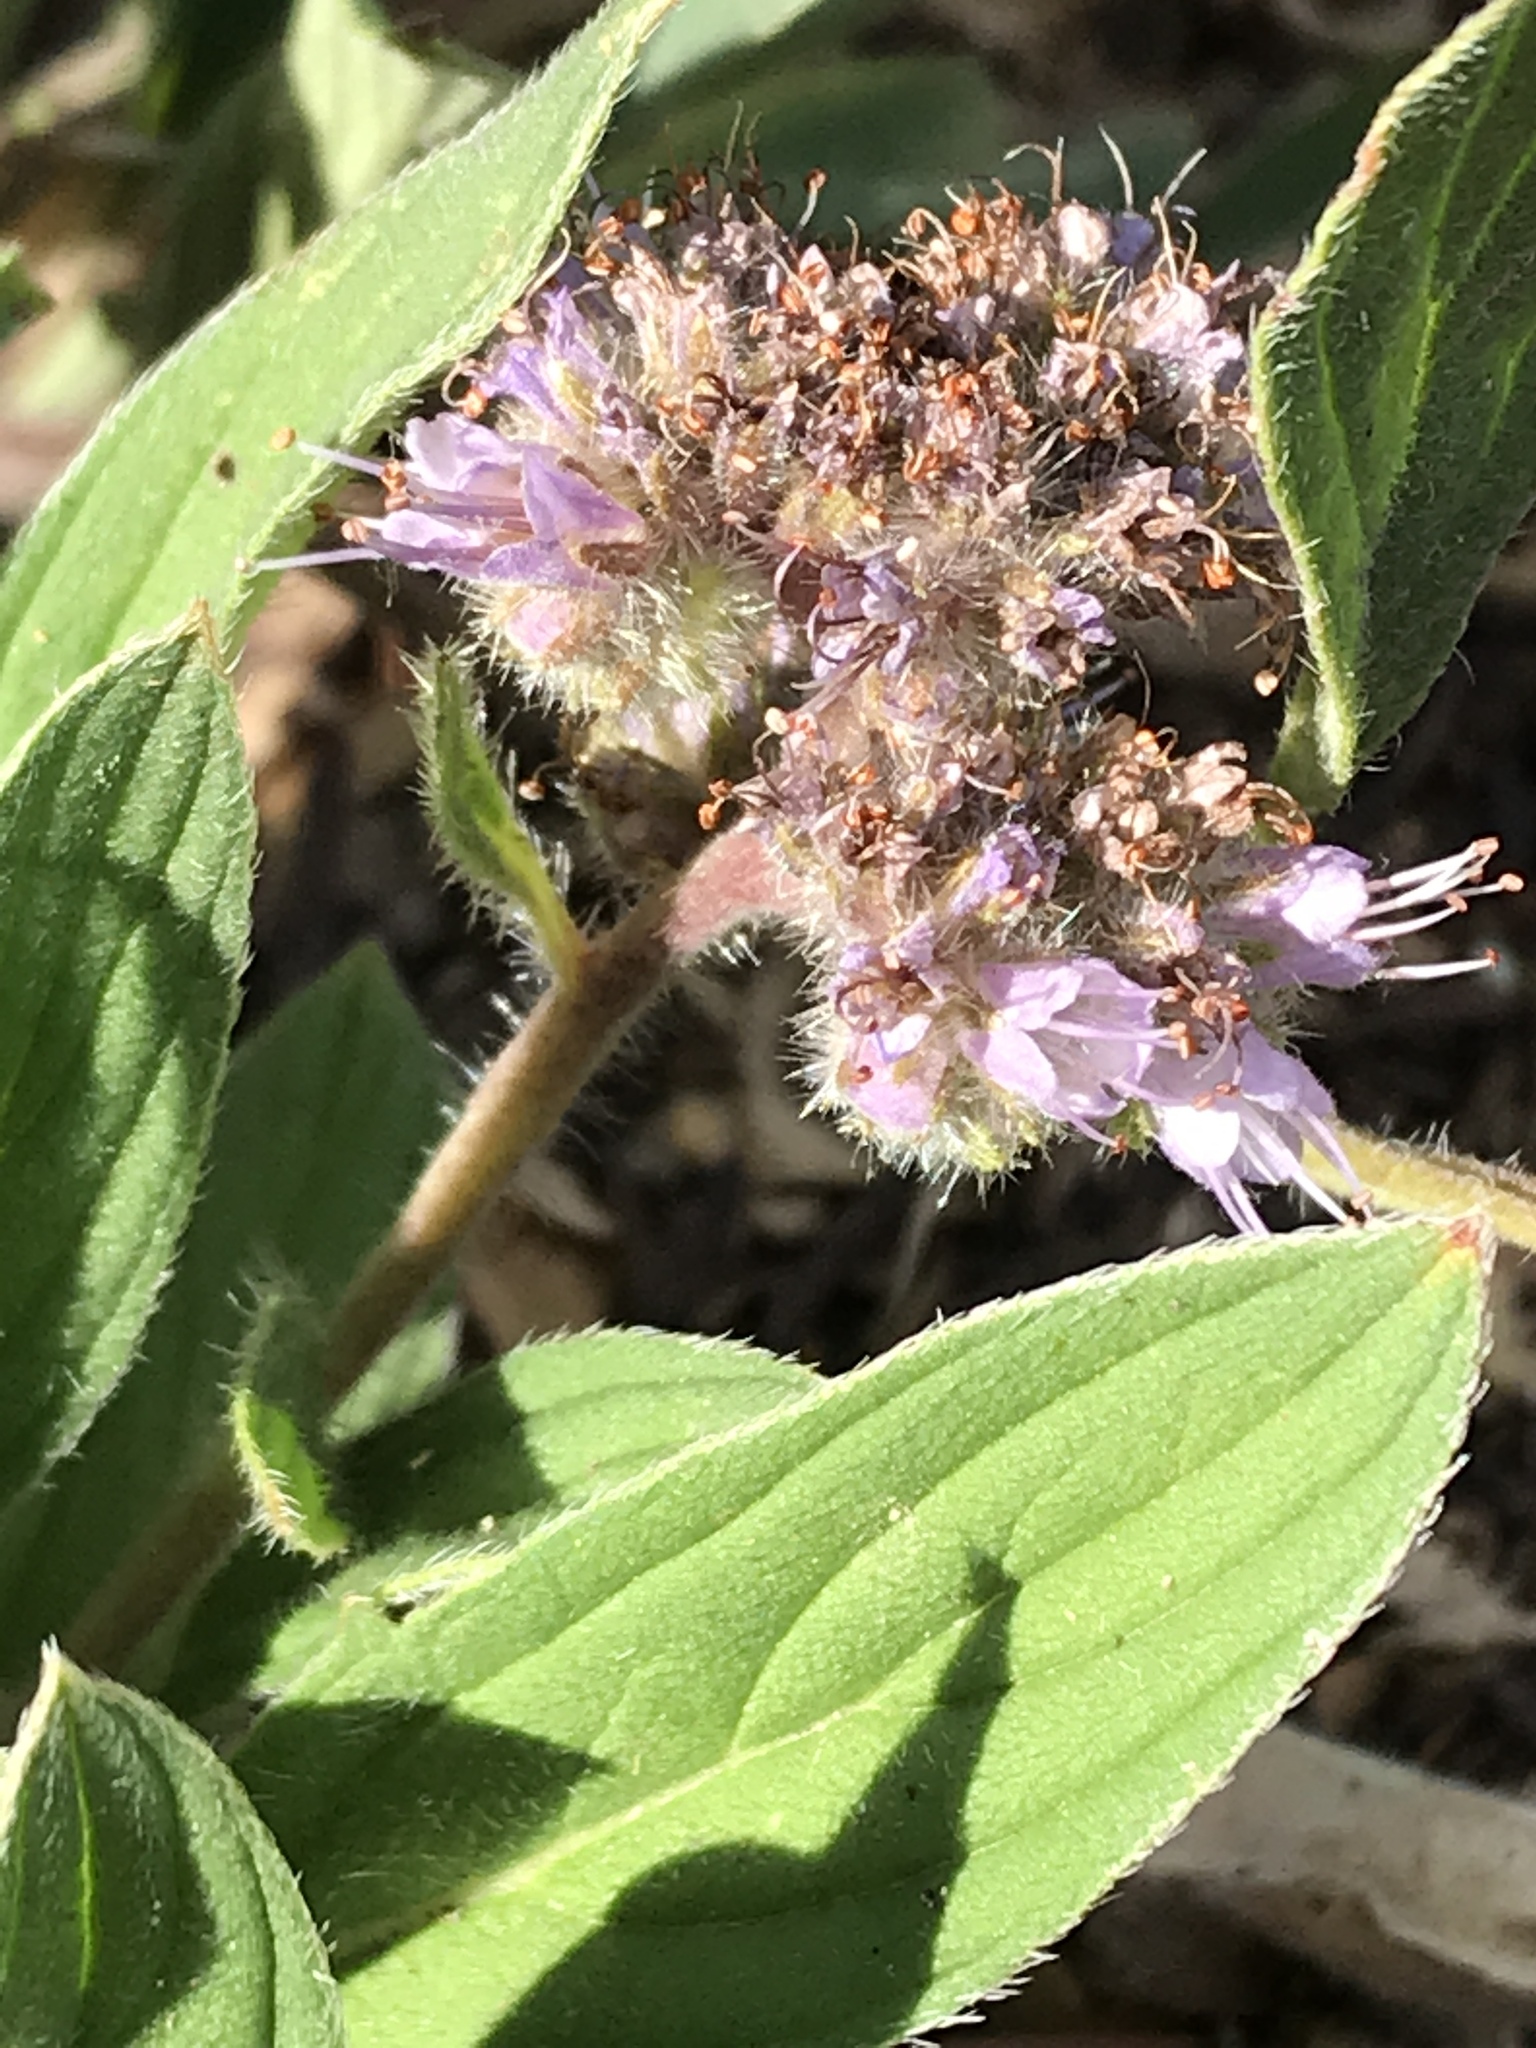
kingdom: Plantae
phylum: Tracheophyta
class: Magnoliopsida
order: Boraginales
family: Hydrophyllaceae
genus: Phacelia
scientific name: Phacelia hastata
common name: Silver-leaved phacelia
